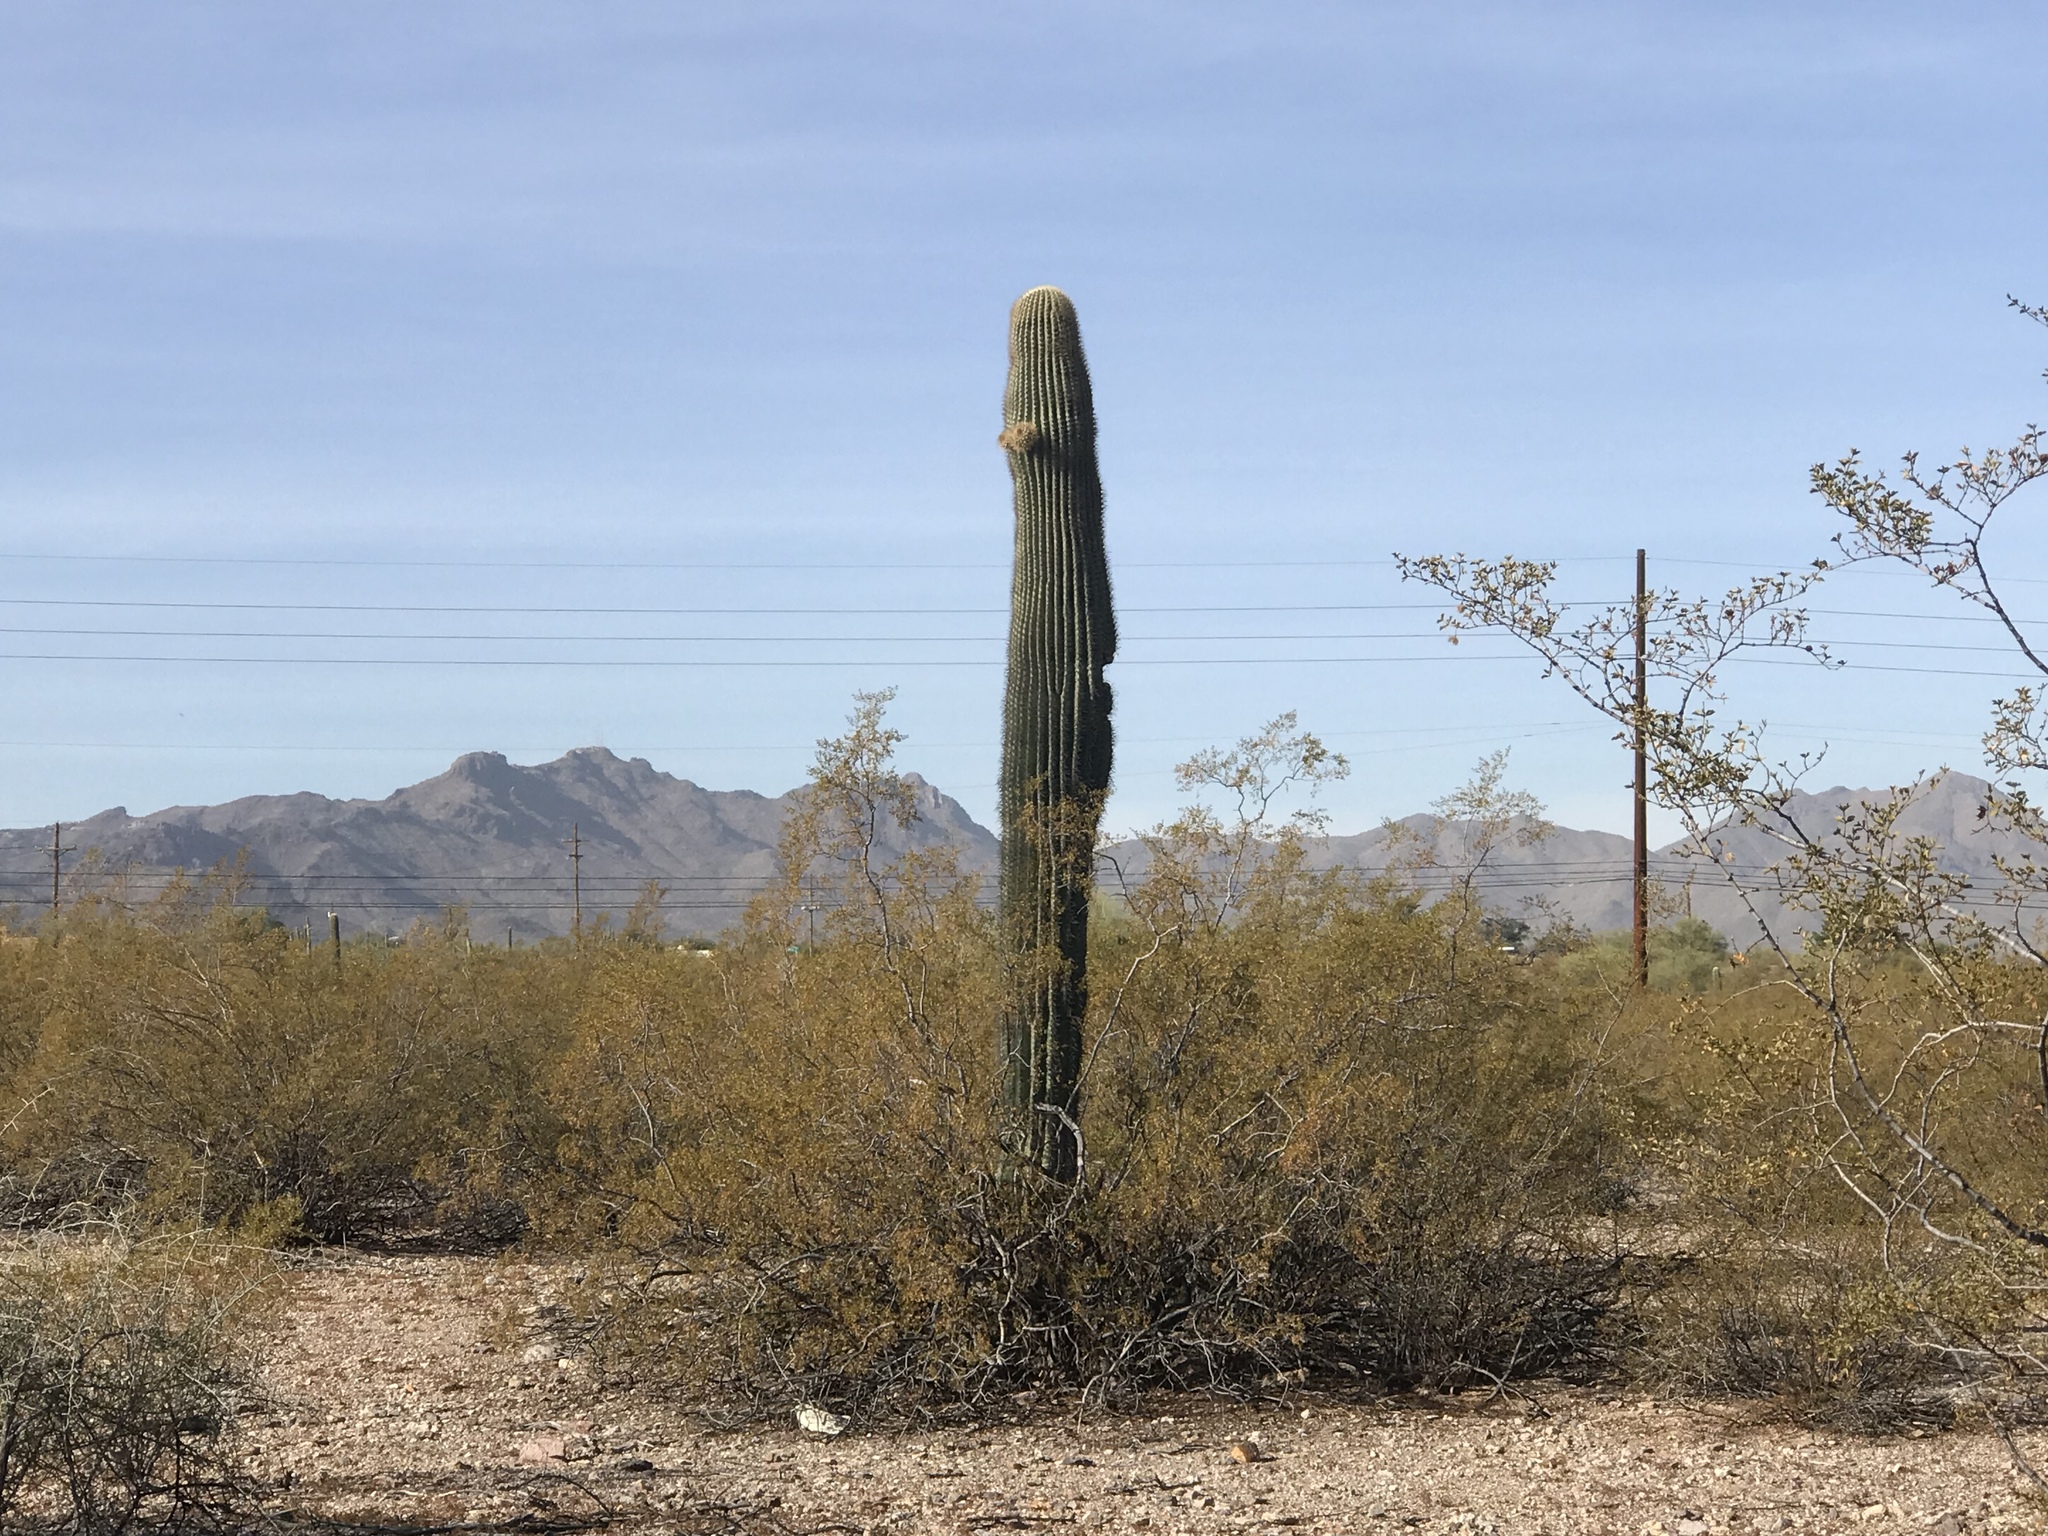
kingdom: Plantae
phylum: Tracheophyta
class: Magnoliopsida
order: Caryophyllales
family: Cactaceae
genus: Carnegiea
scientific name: Carnegiea gigantea
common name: Saguaro
